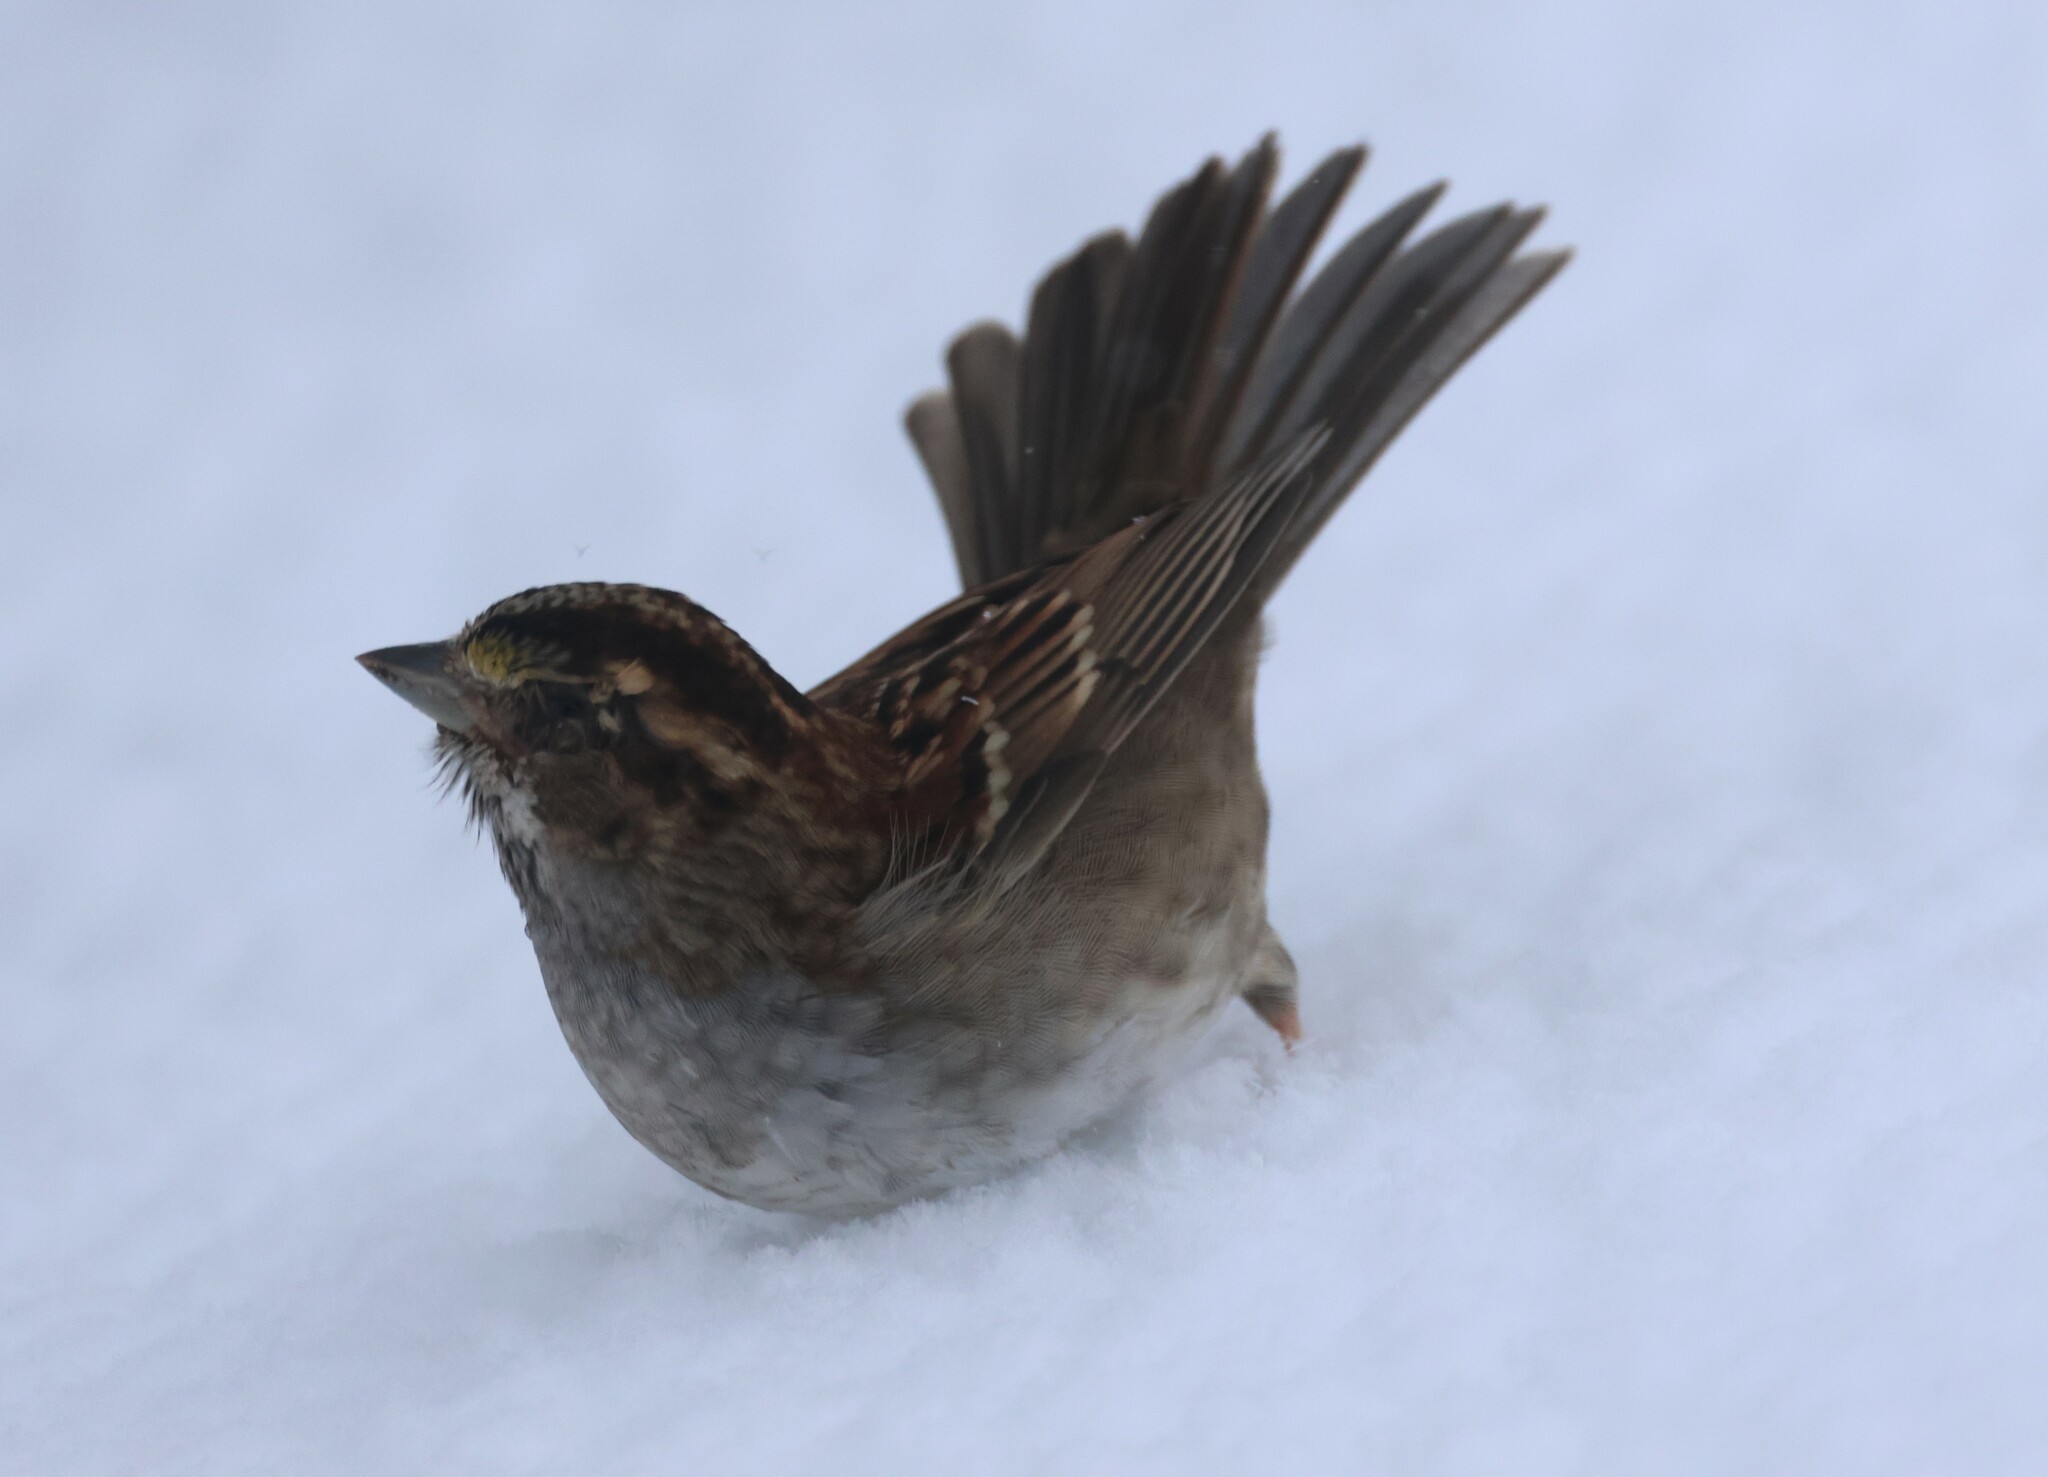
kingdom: Animalia
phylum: Chordata
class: Aves
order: Passeriformes
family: Passerellidae
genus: Zonotrichia
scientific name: Zonotrichia albicollis
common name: White-throated sparrow
